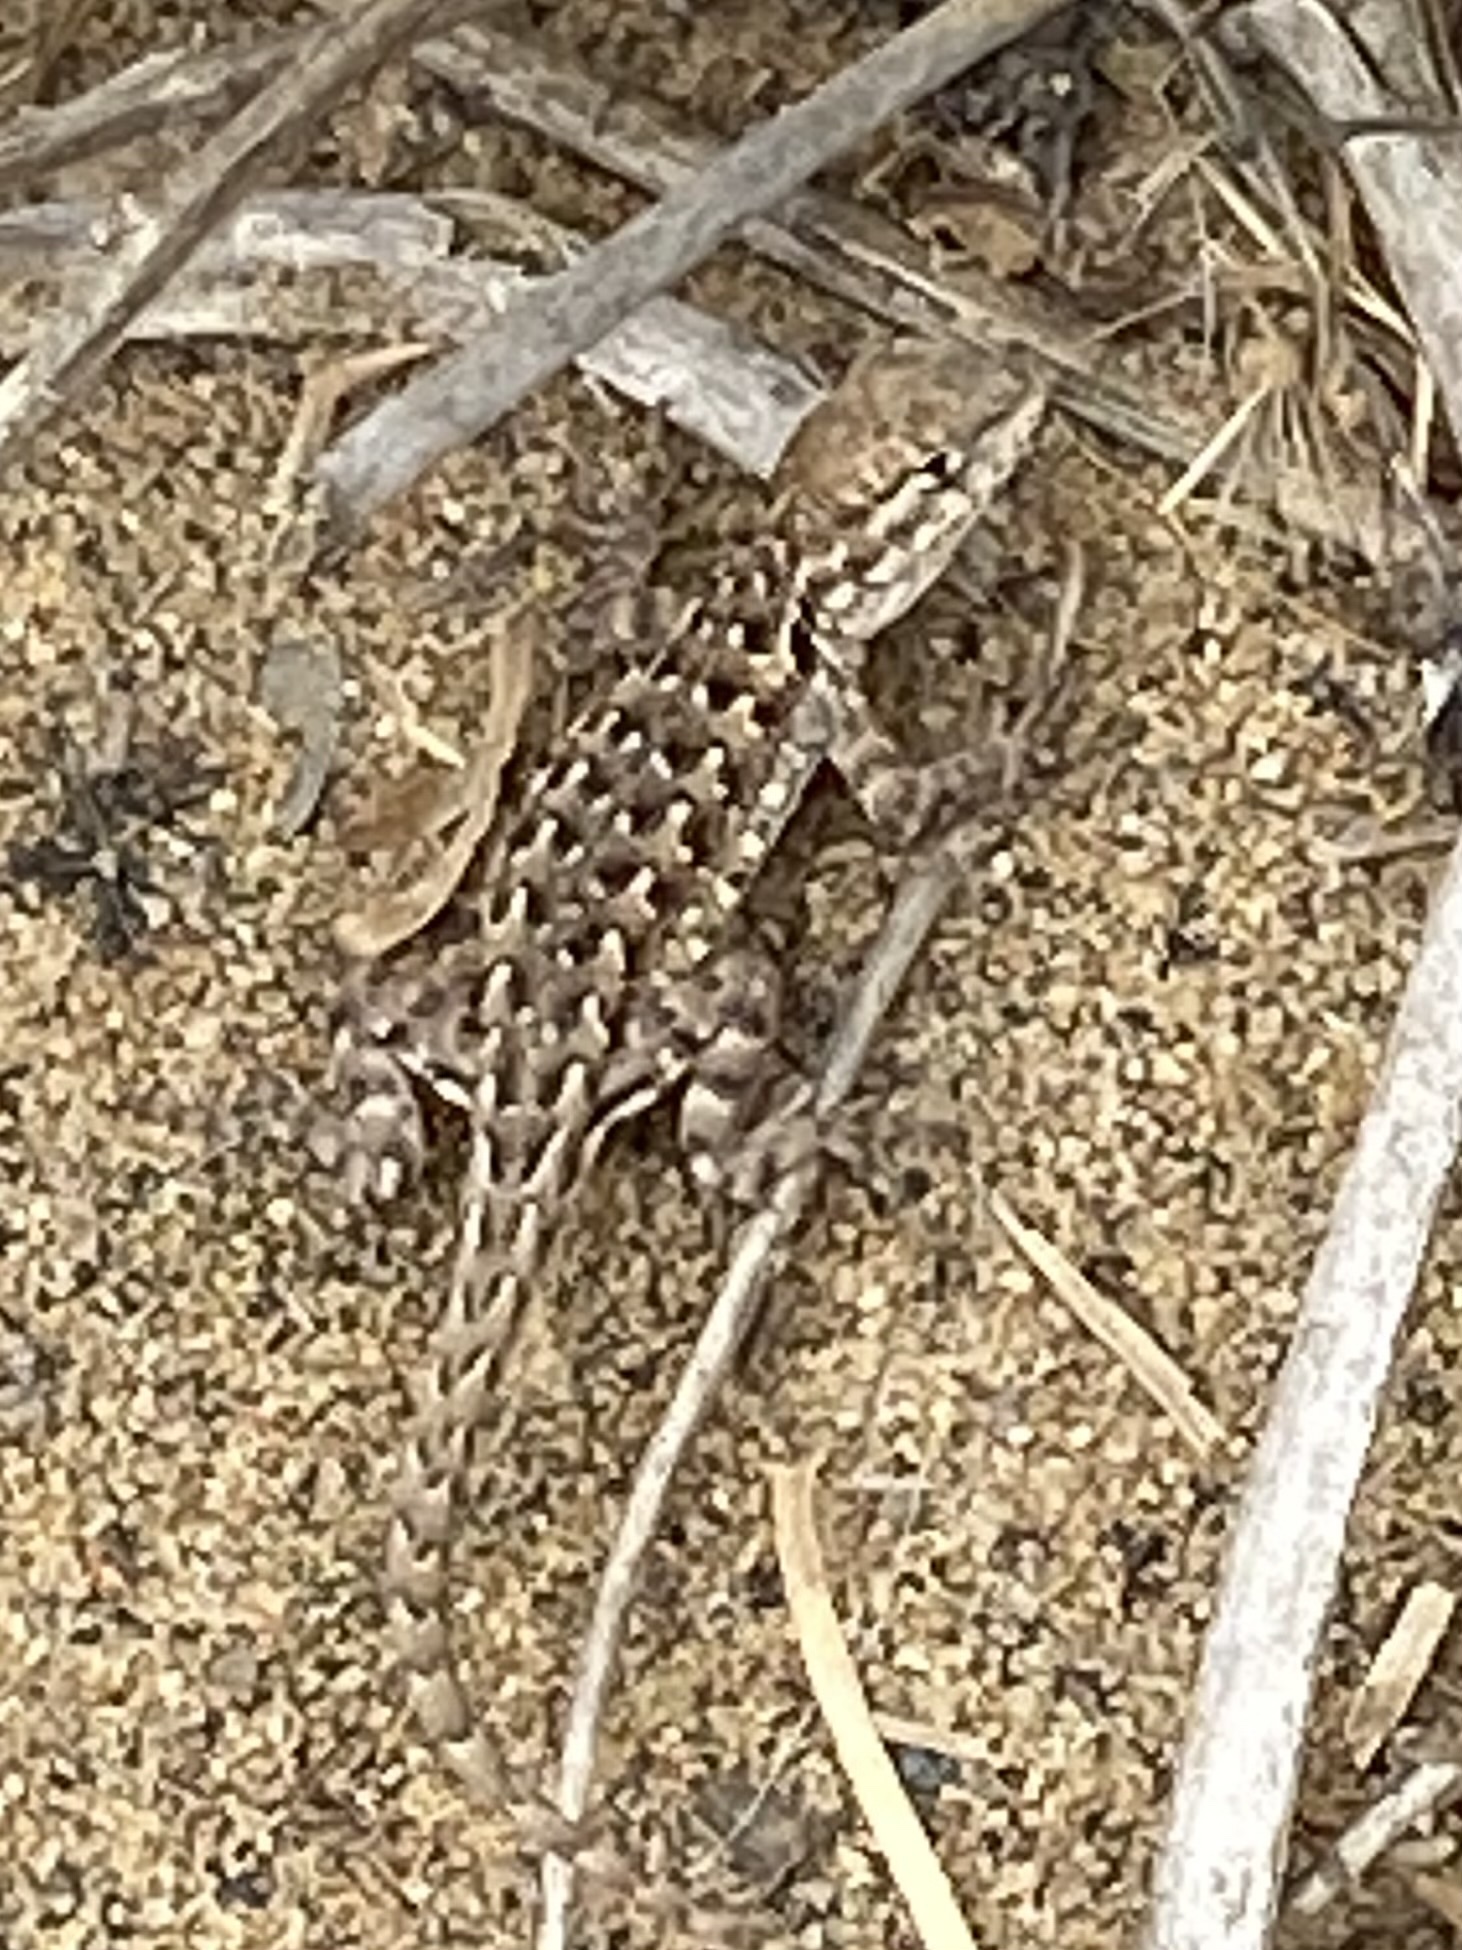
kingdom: Animalia
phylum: Chordata
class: Squamata
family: Phrynosomatidae
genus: Uta
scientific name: Uta stansburiana
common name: Side-blotched lizard
